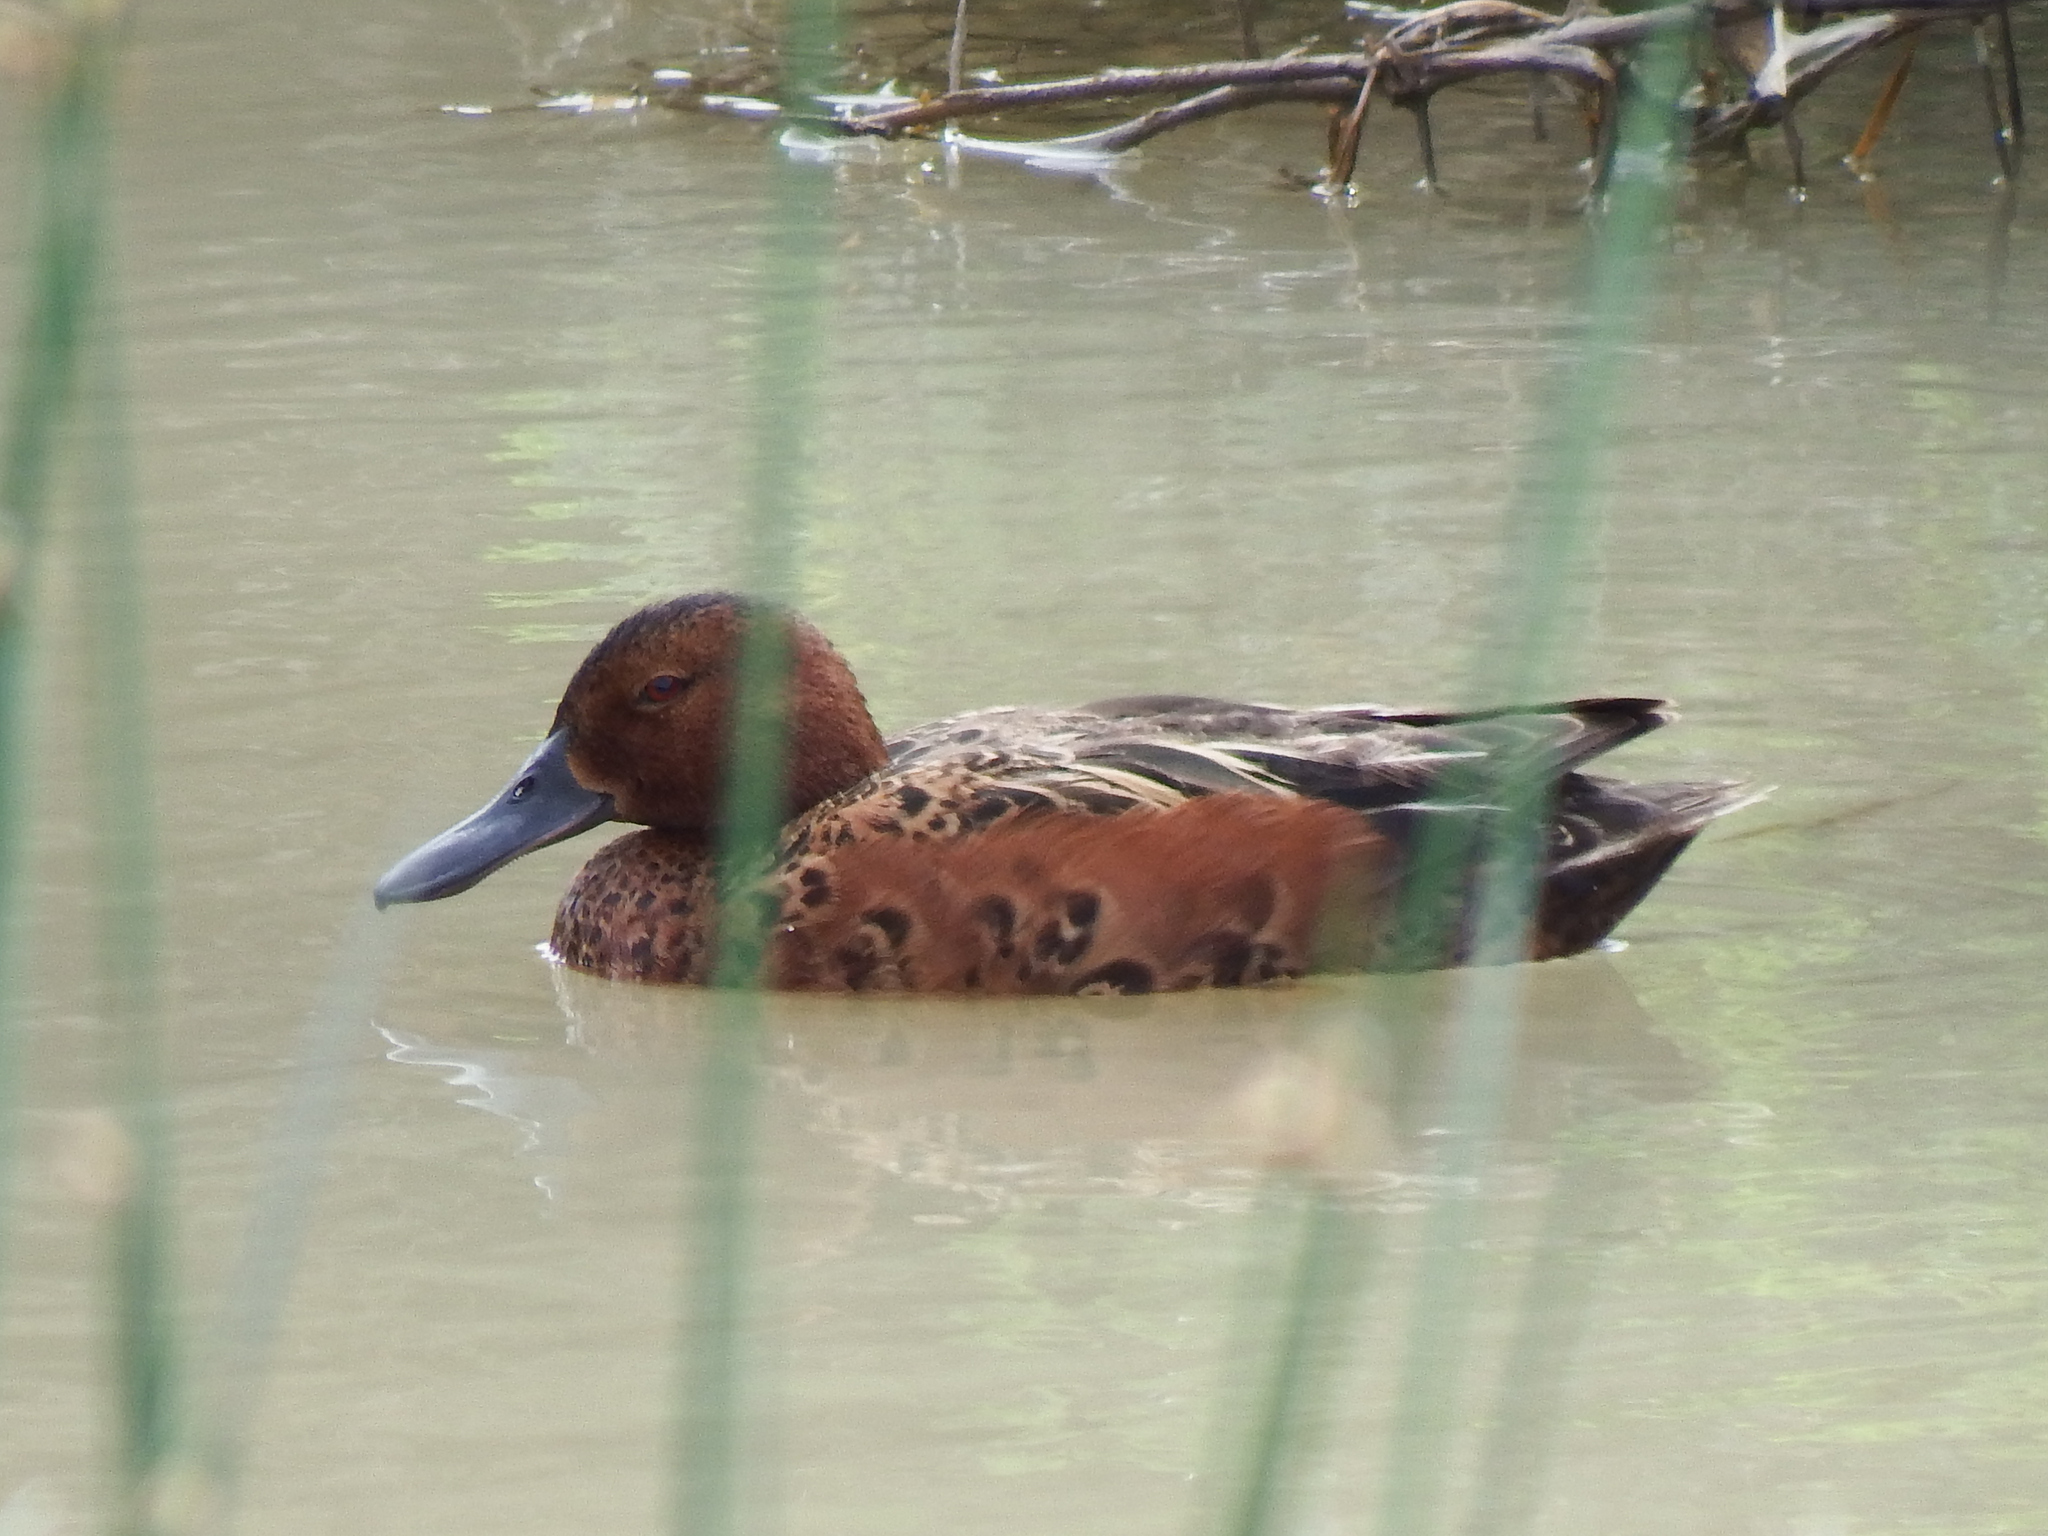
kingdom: Animalia
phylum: Chordata
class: Aves
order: Anseriformes
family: Anatidae
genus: Spatula
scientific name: Spatula cyanoptera
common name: Cinnamon teal
